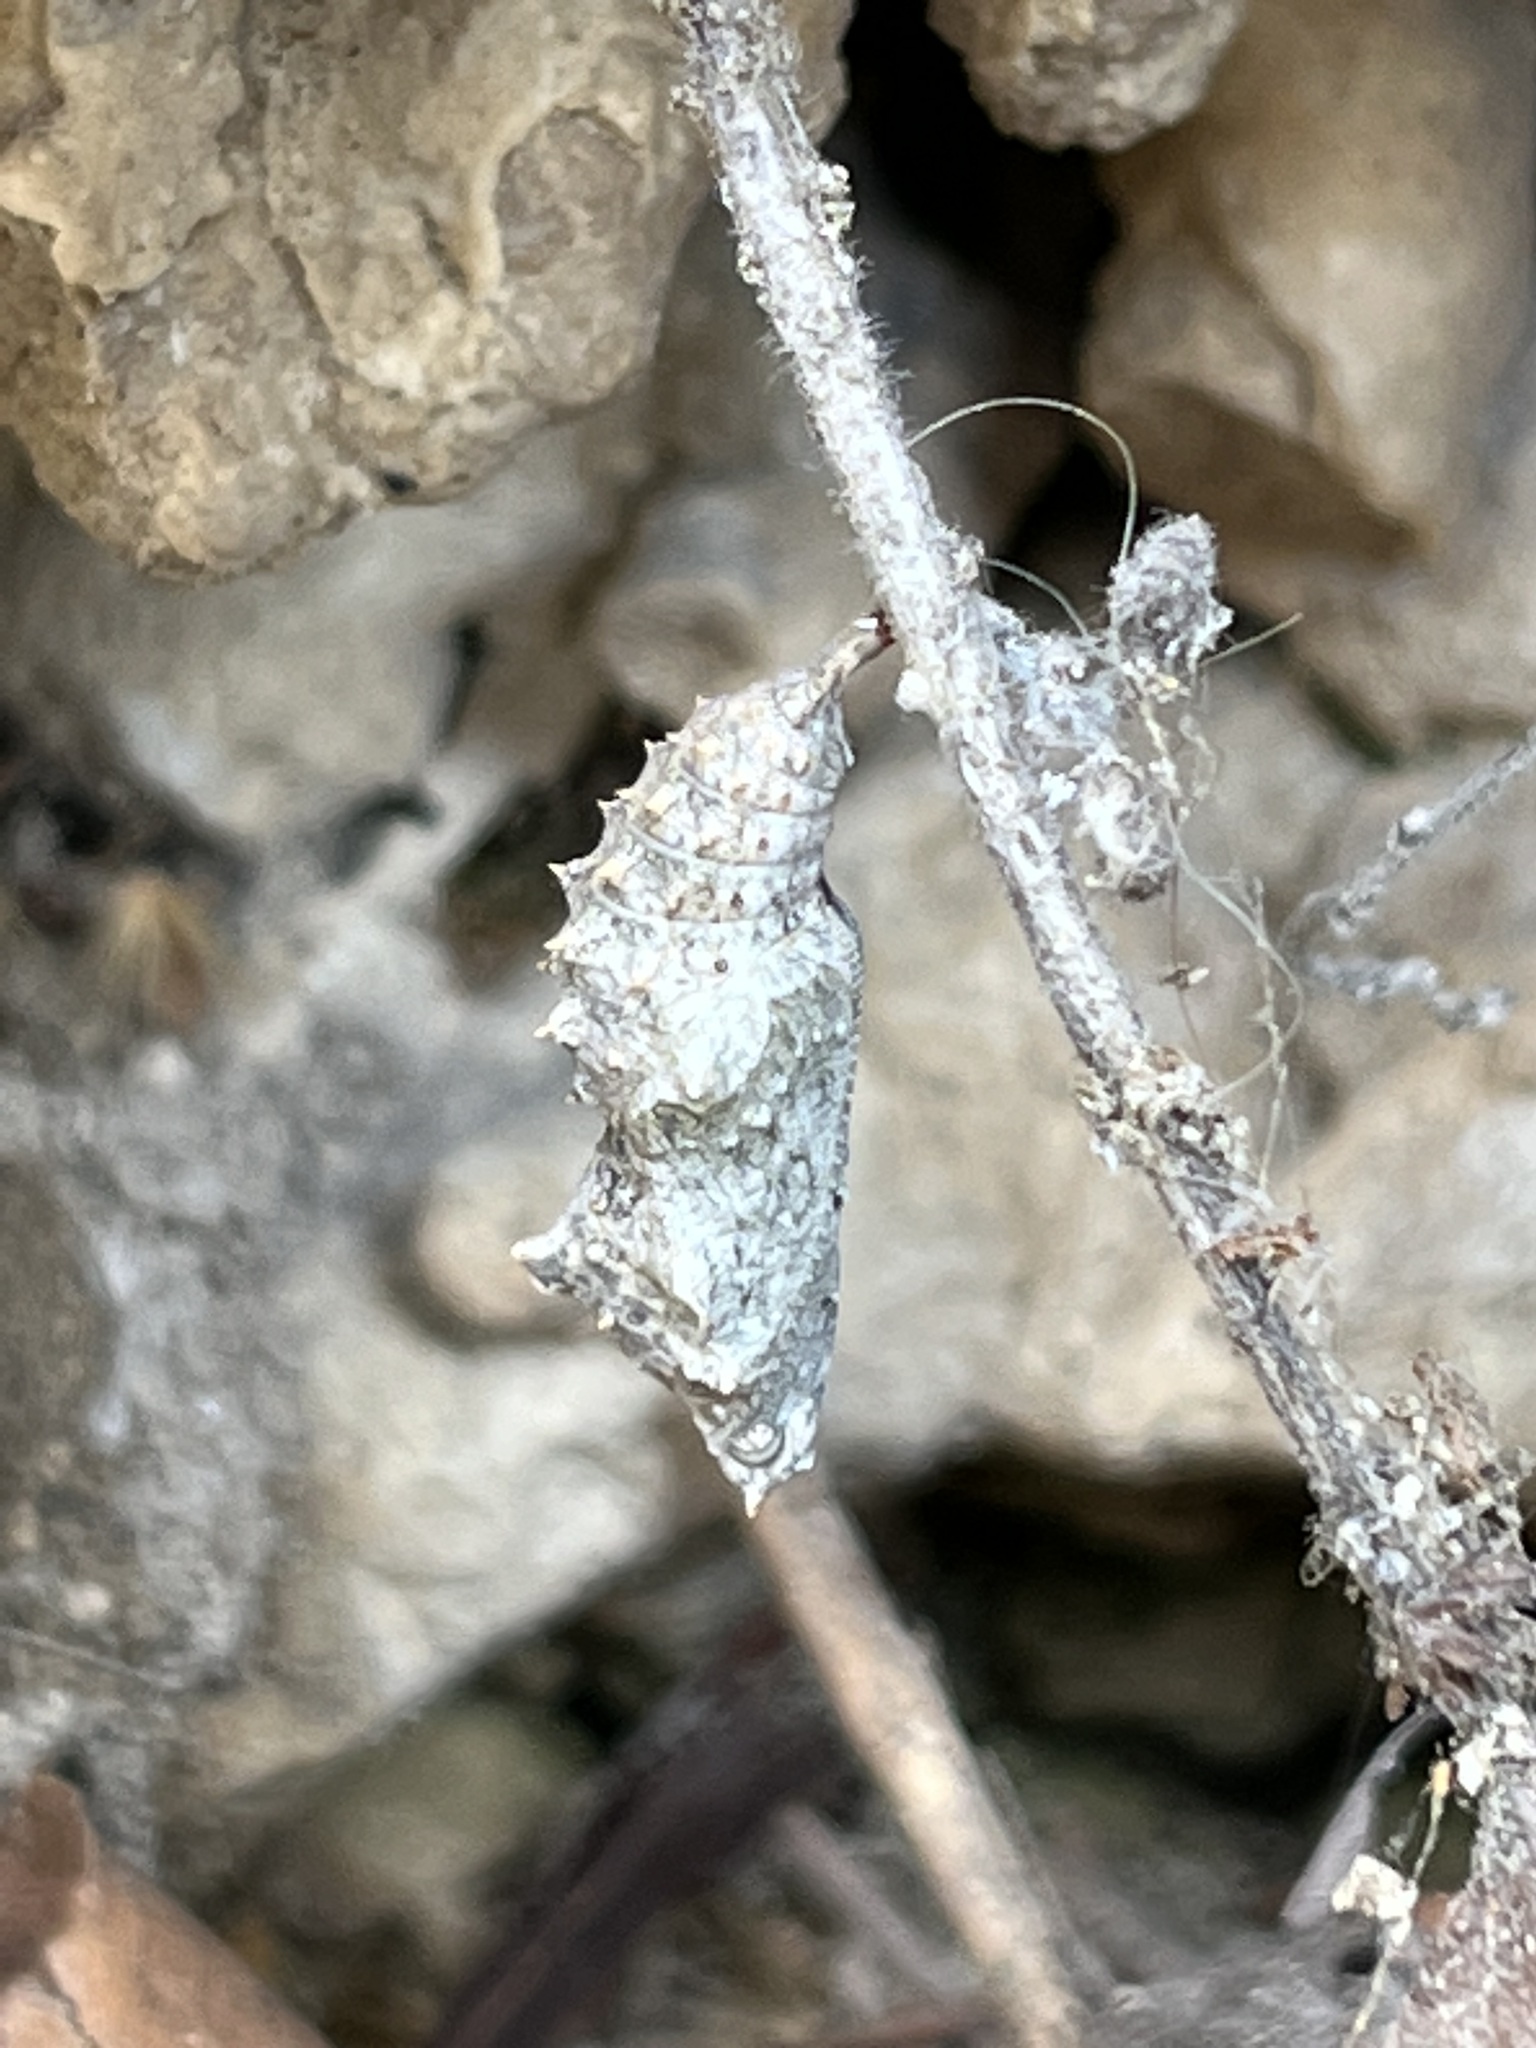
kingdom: Animalia
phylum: Arthropoda
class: Insecta
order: Lepidoptera
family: Nymphalidae
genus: Polygonia
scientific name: Polygonia egea
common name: Southern comma
